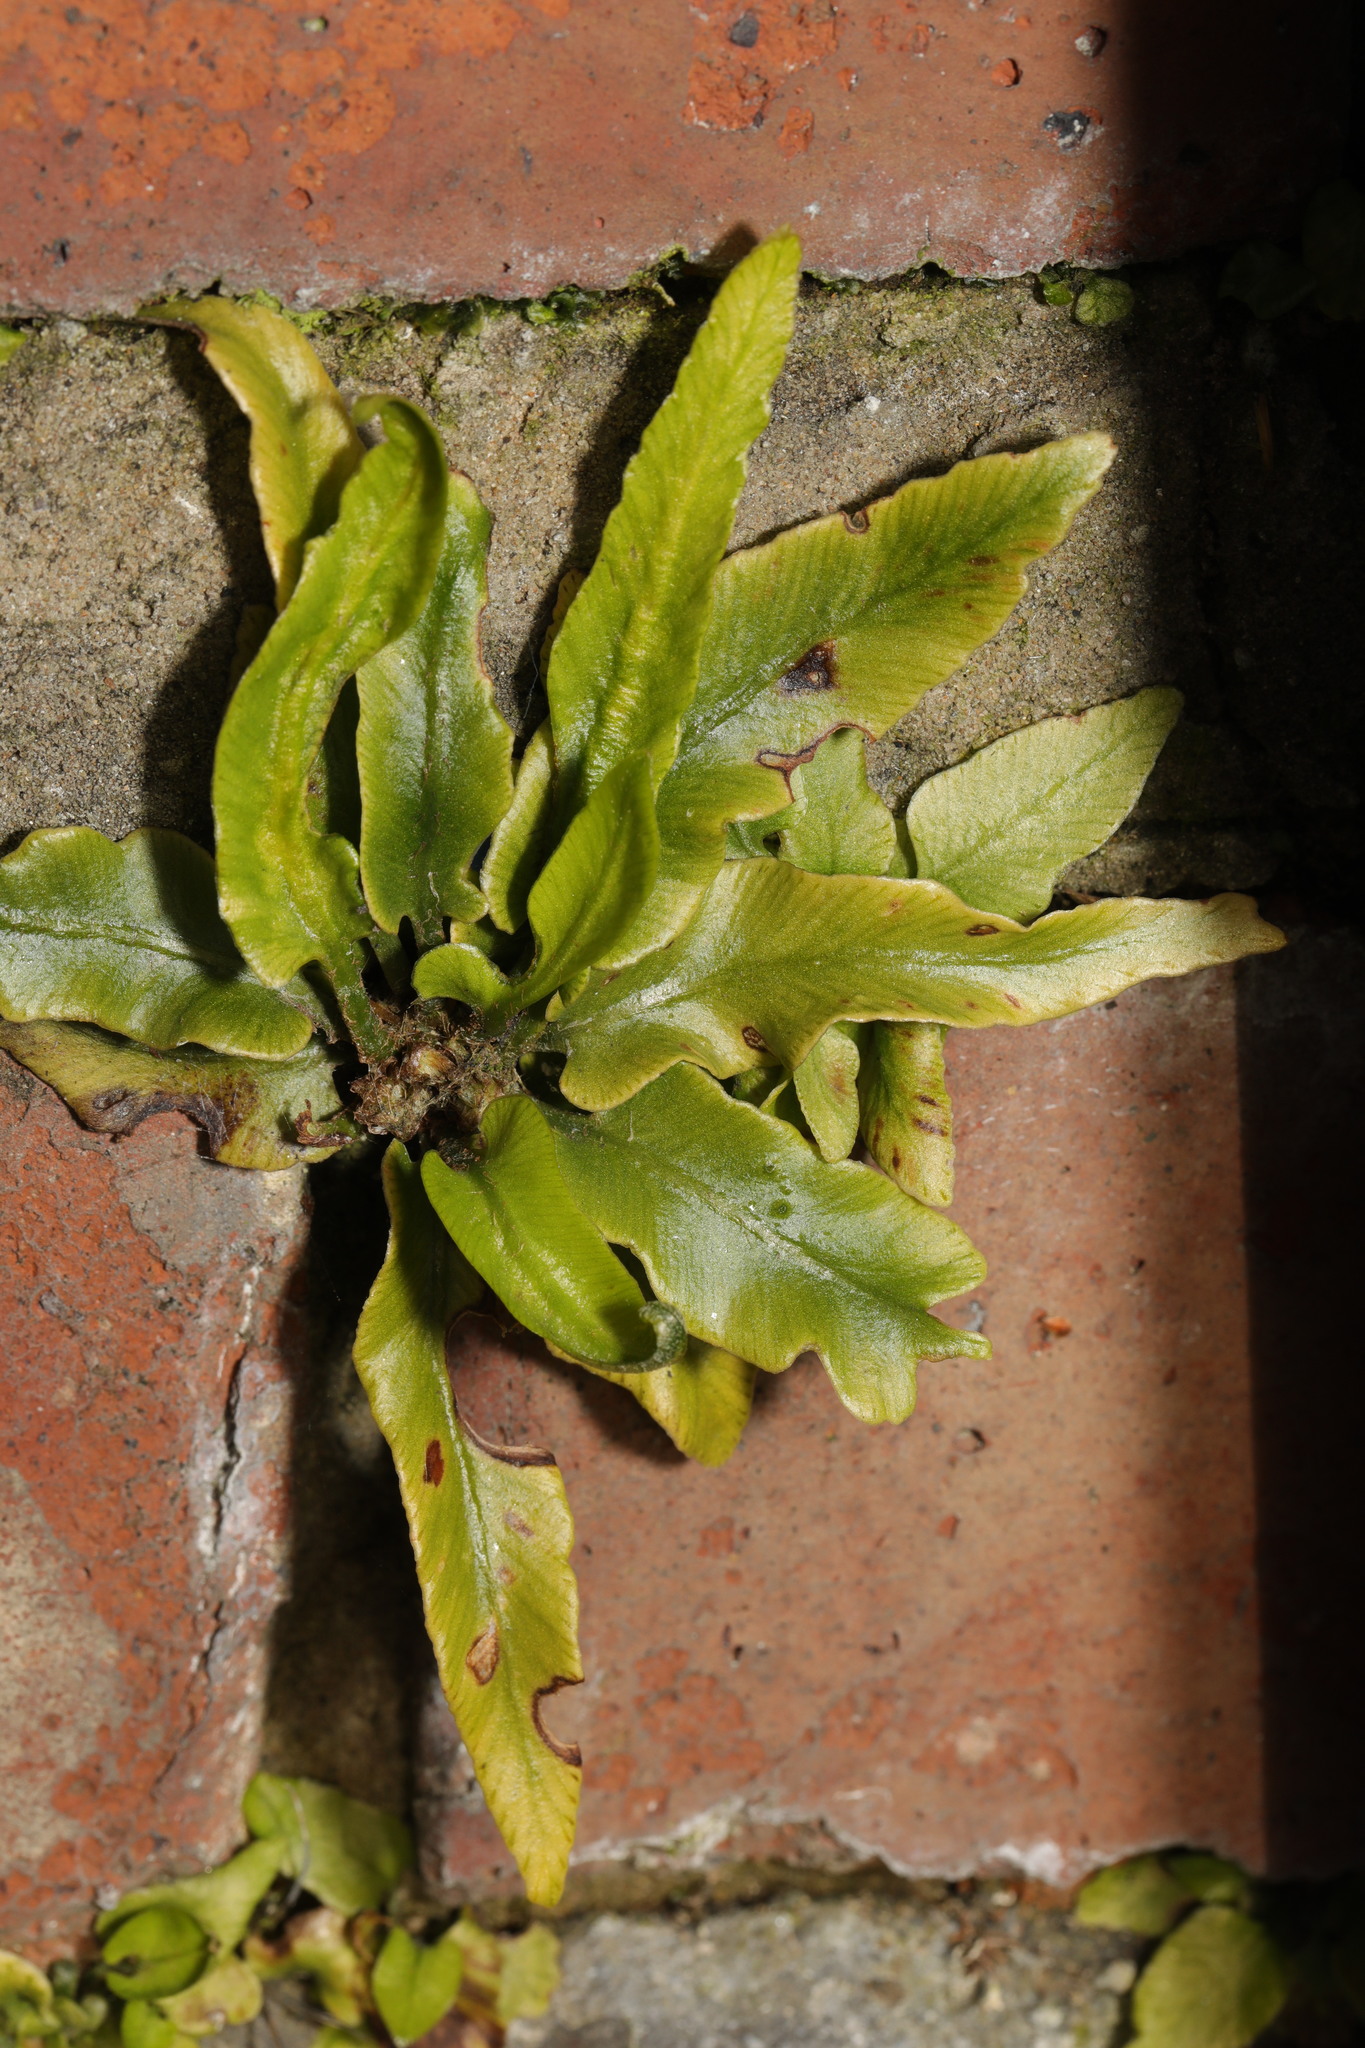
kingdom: Plantae
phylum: Tracheophyta
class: Polypodiopsida
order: Polypodiales
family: Aspleniaceae
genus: Asplenium
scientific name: Asplenium scolopendrium
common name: Hart's-tongue fern
